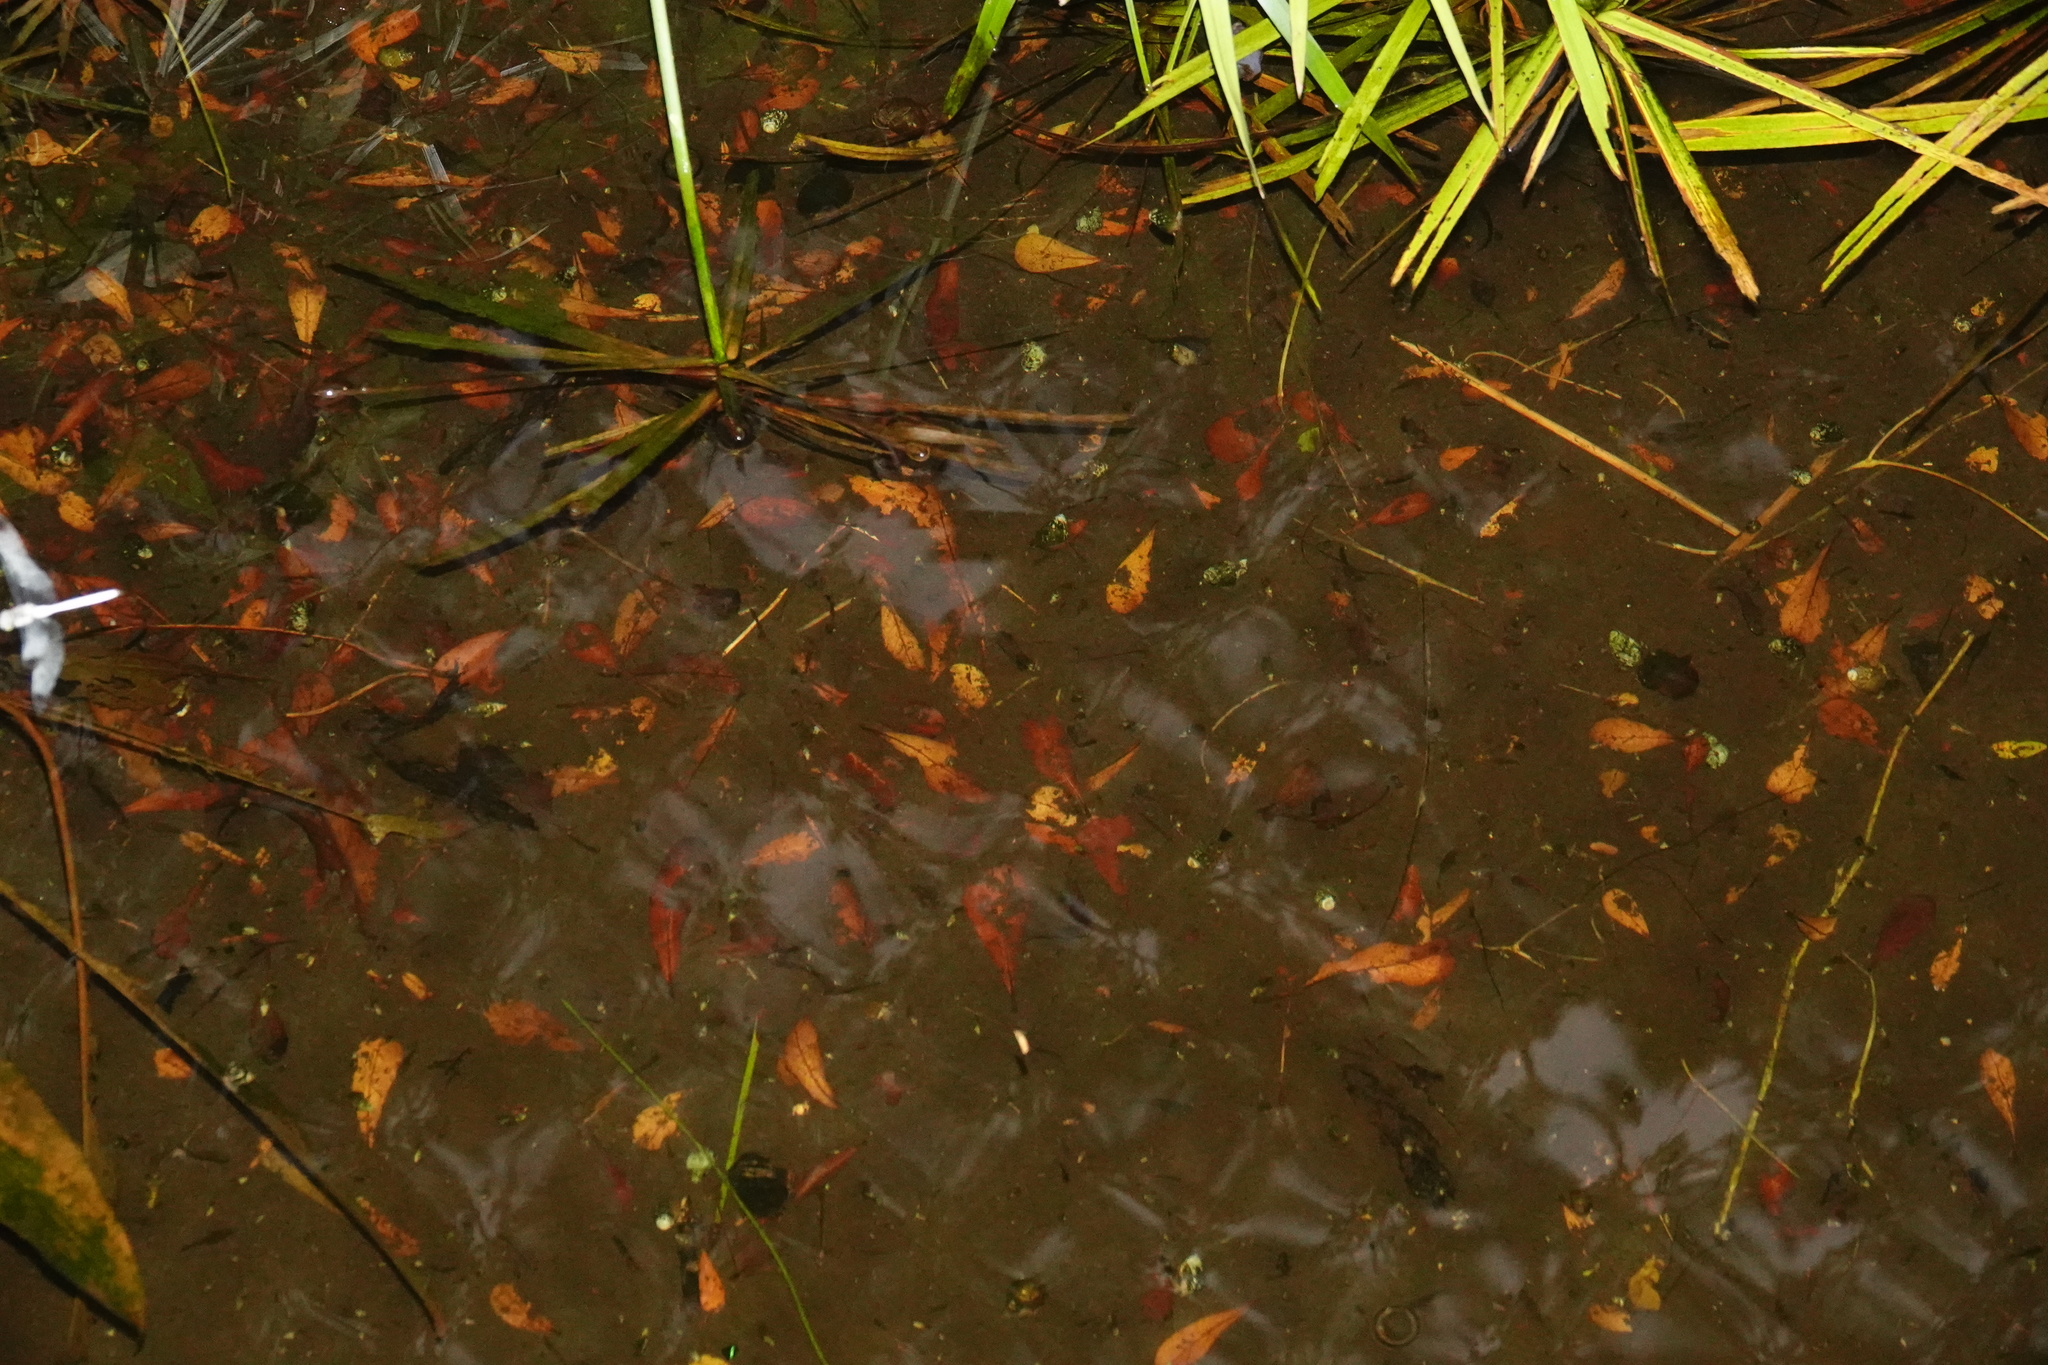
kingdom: Animalia
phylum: Arthropoda
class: Insecta
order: Odonata
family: Libellulidae
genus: Zyxomma
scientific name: Zyxomma obtusum
